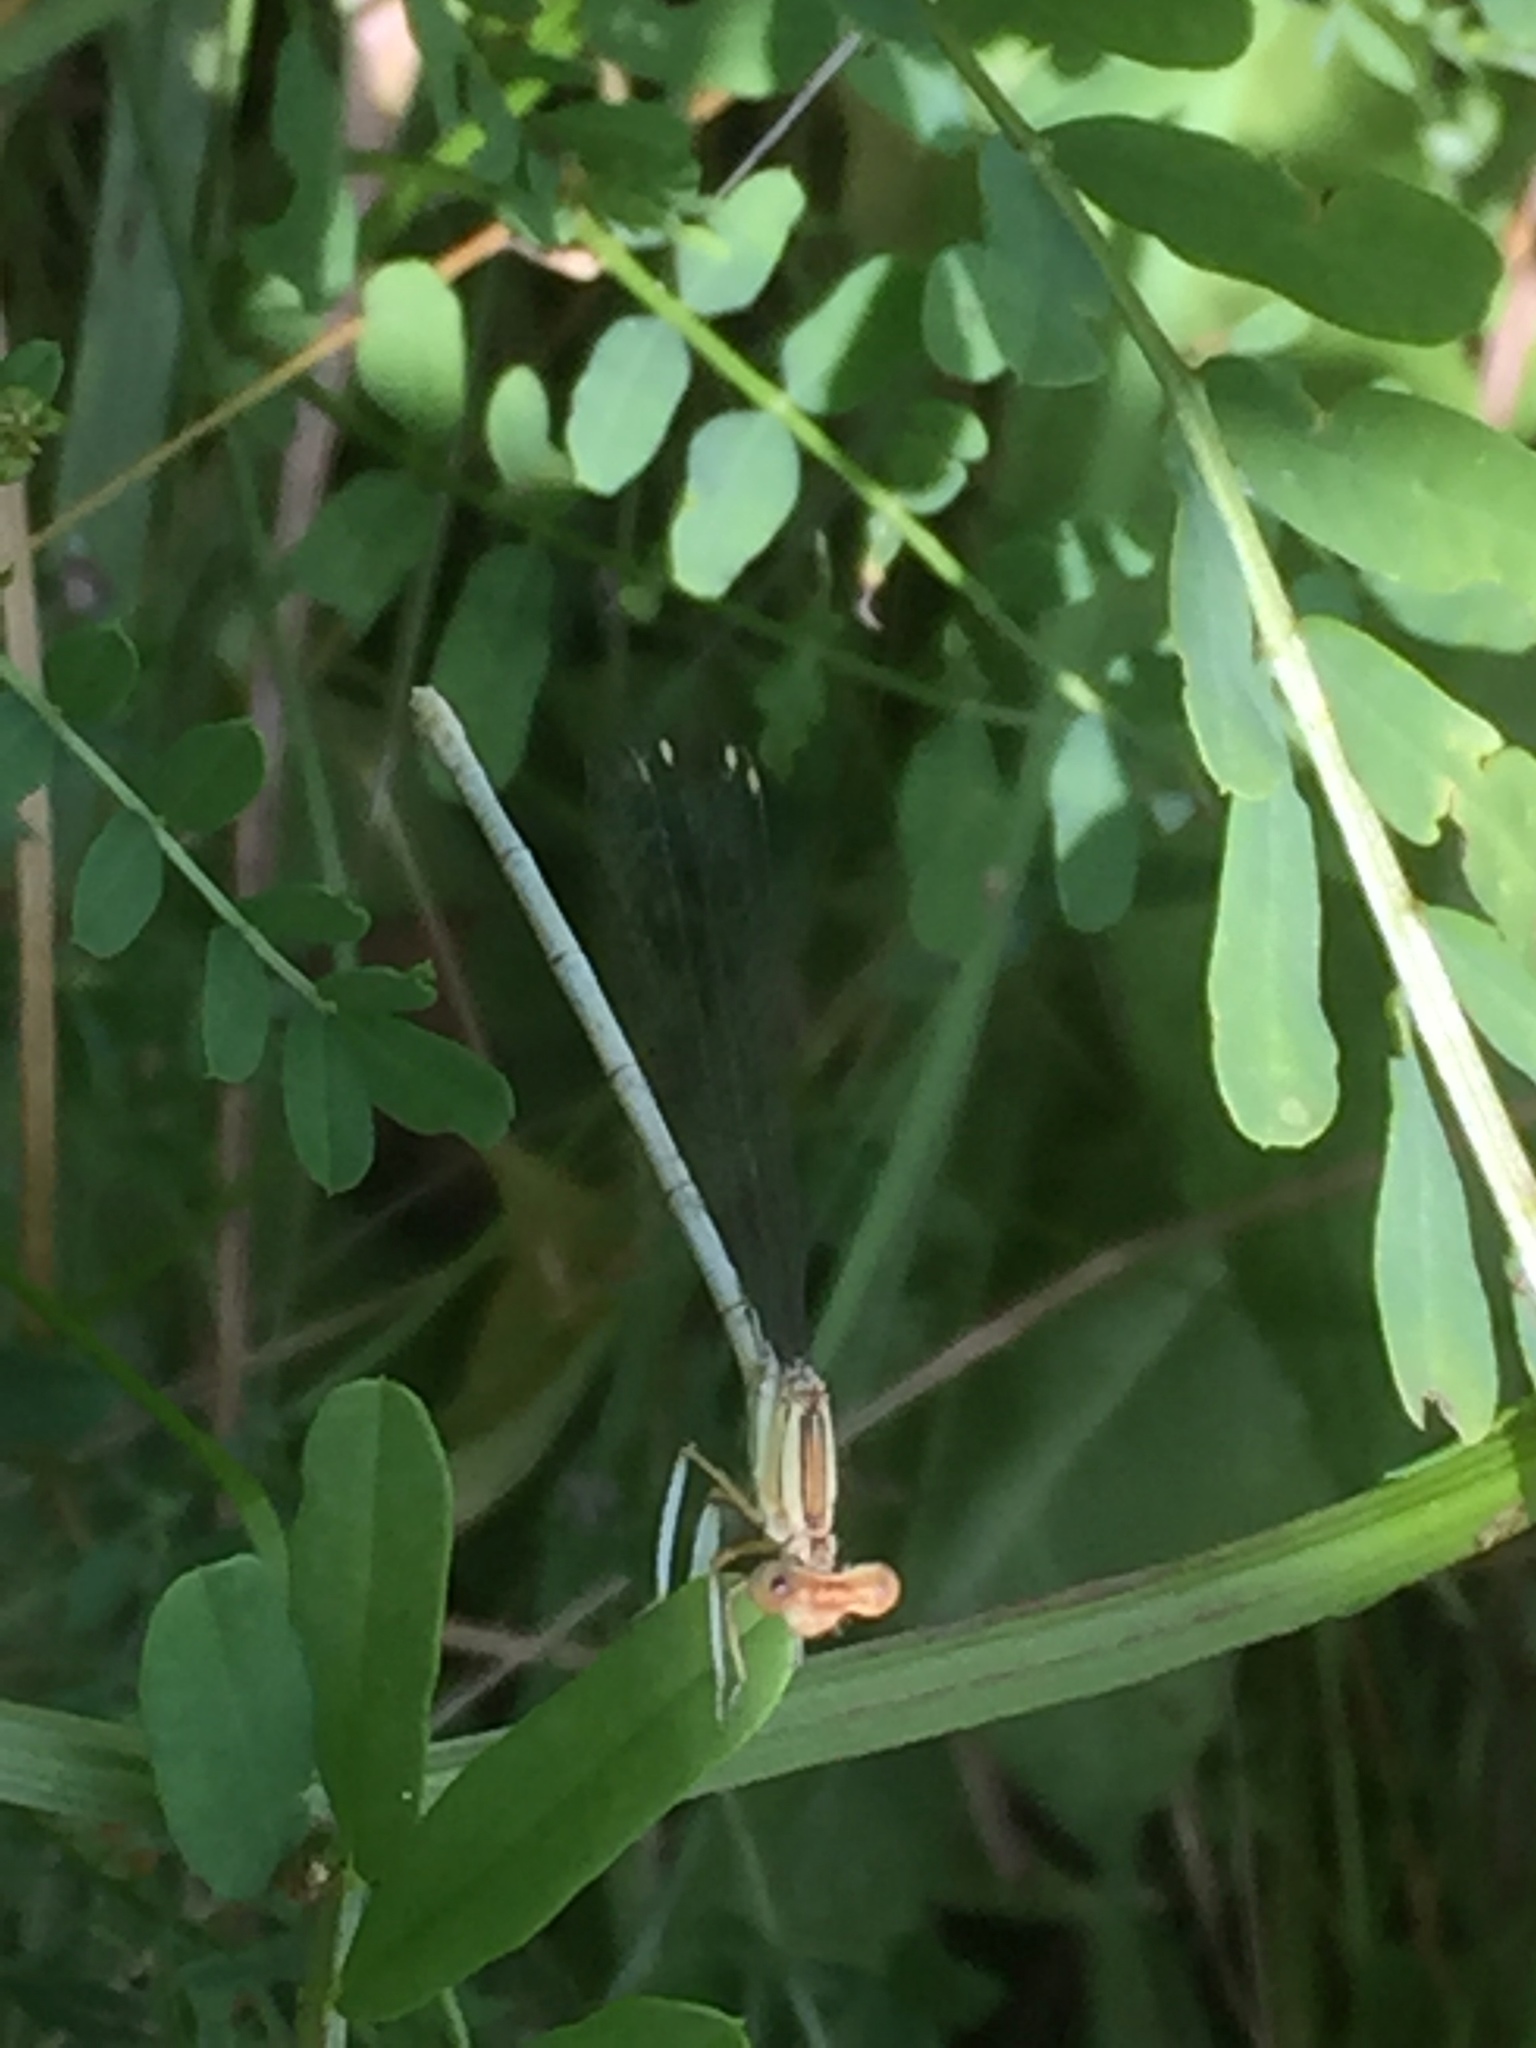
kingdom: Animalia
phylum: Arthropoda
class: Insecta
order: Odonata
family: Platycnemididae
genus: Platycnemis
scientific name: Platycnemis dealbata
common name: Ivory featherleg
